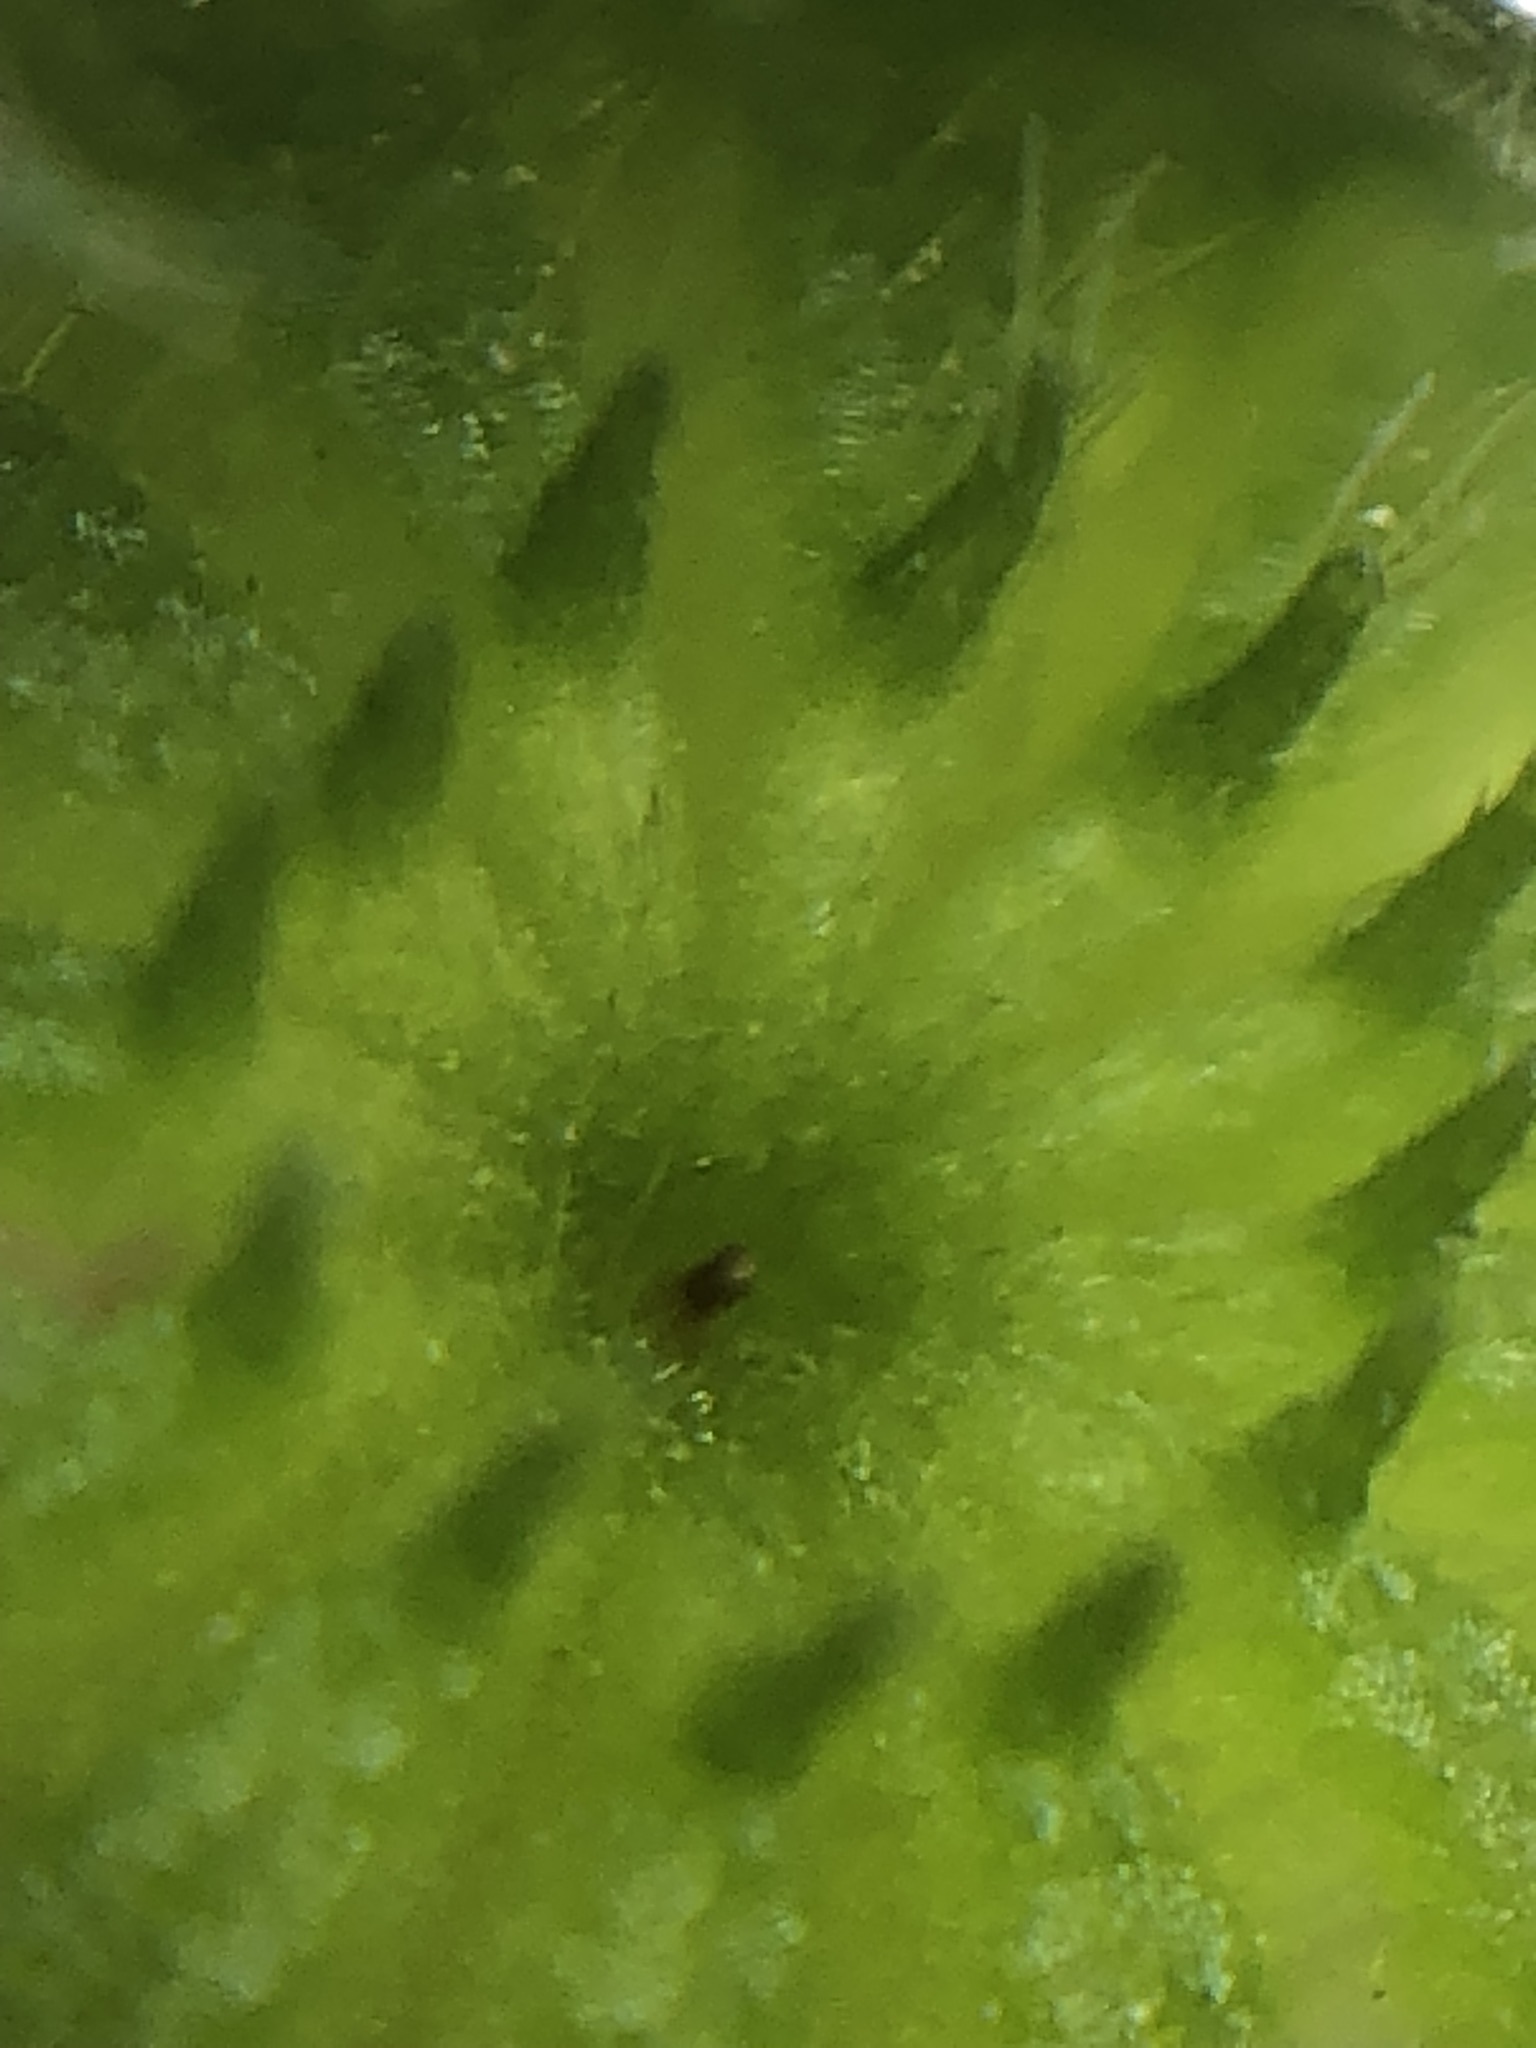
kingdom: Plantae
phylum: Tracheophyta
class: Magnoliopsida
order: Malvales
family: Malvaceae
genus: Malvastrum
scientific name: Malvastrum coromandelianum
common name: Threelobe false mallow
